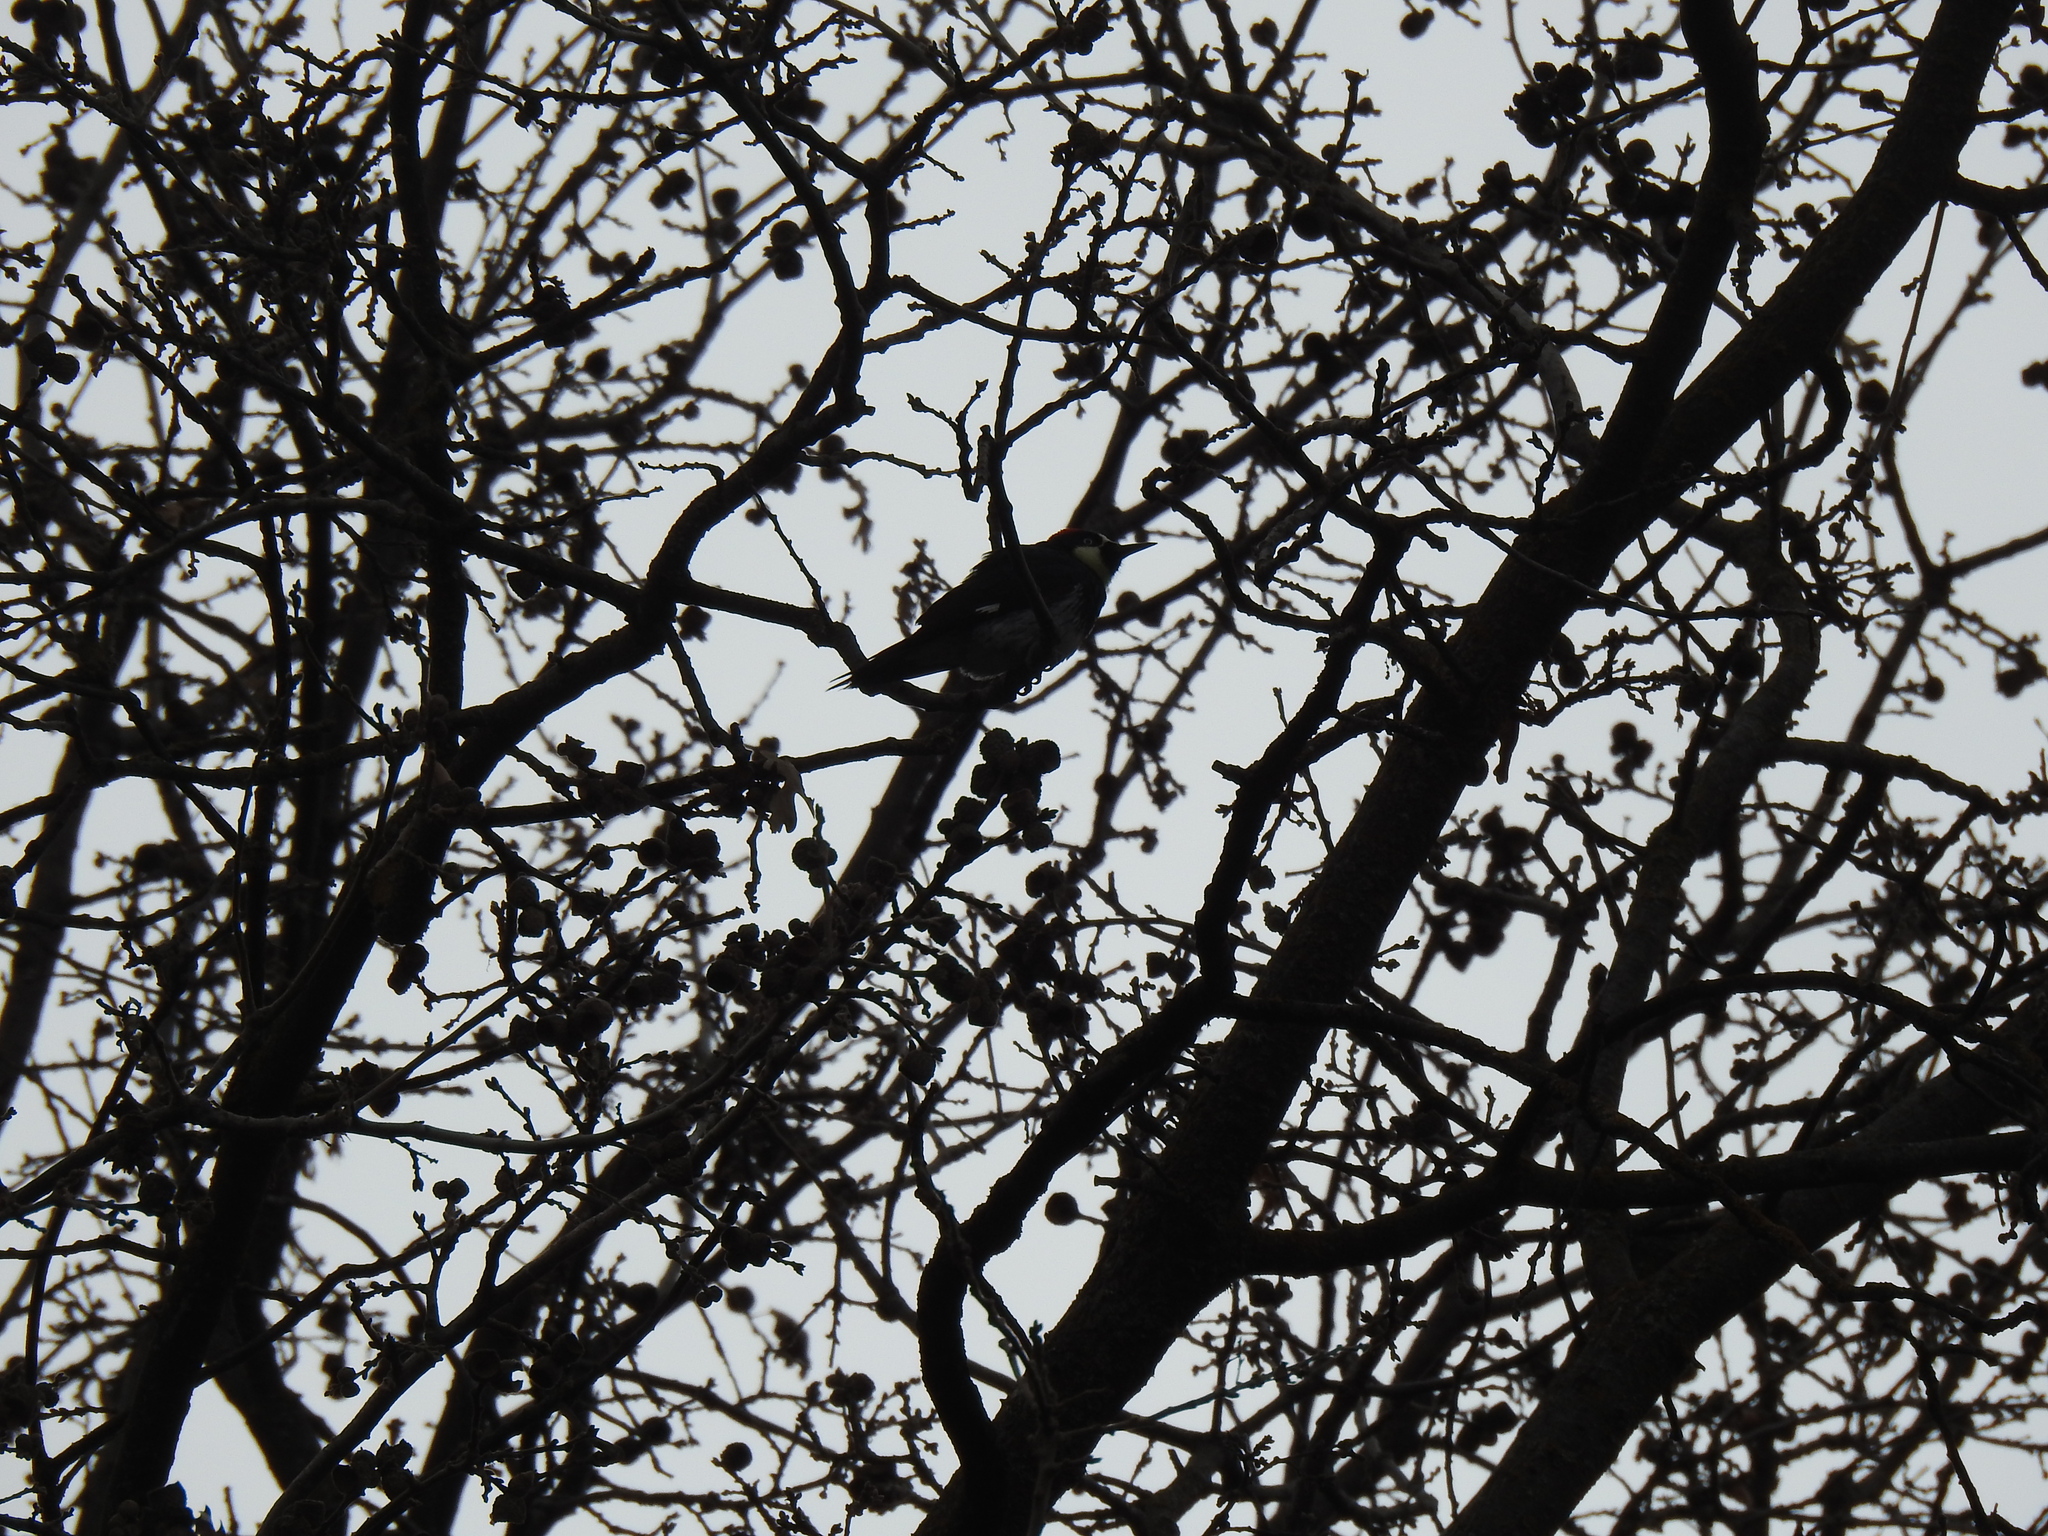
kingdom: Animalia
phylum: Chordata
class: Aves
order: Piciformes
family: Picidae
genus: Melanerpes
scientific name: Melanerpes formicivorus
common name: Acorn woodpecker
